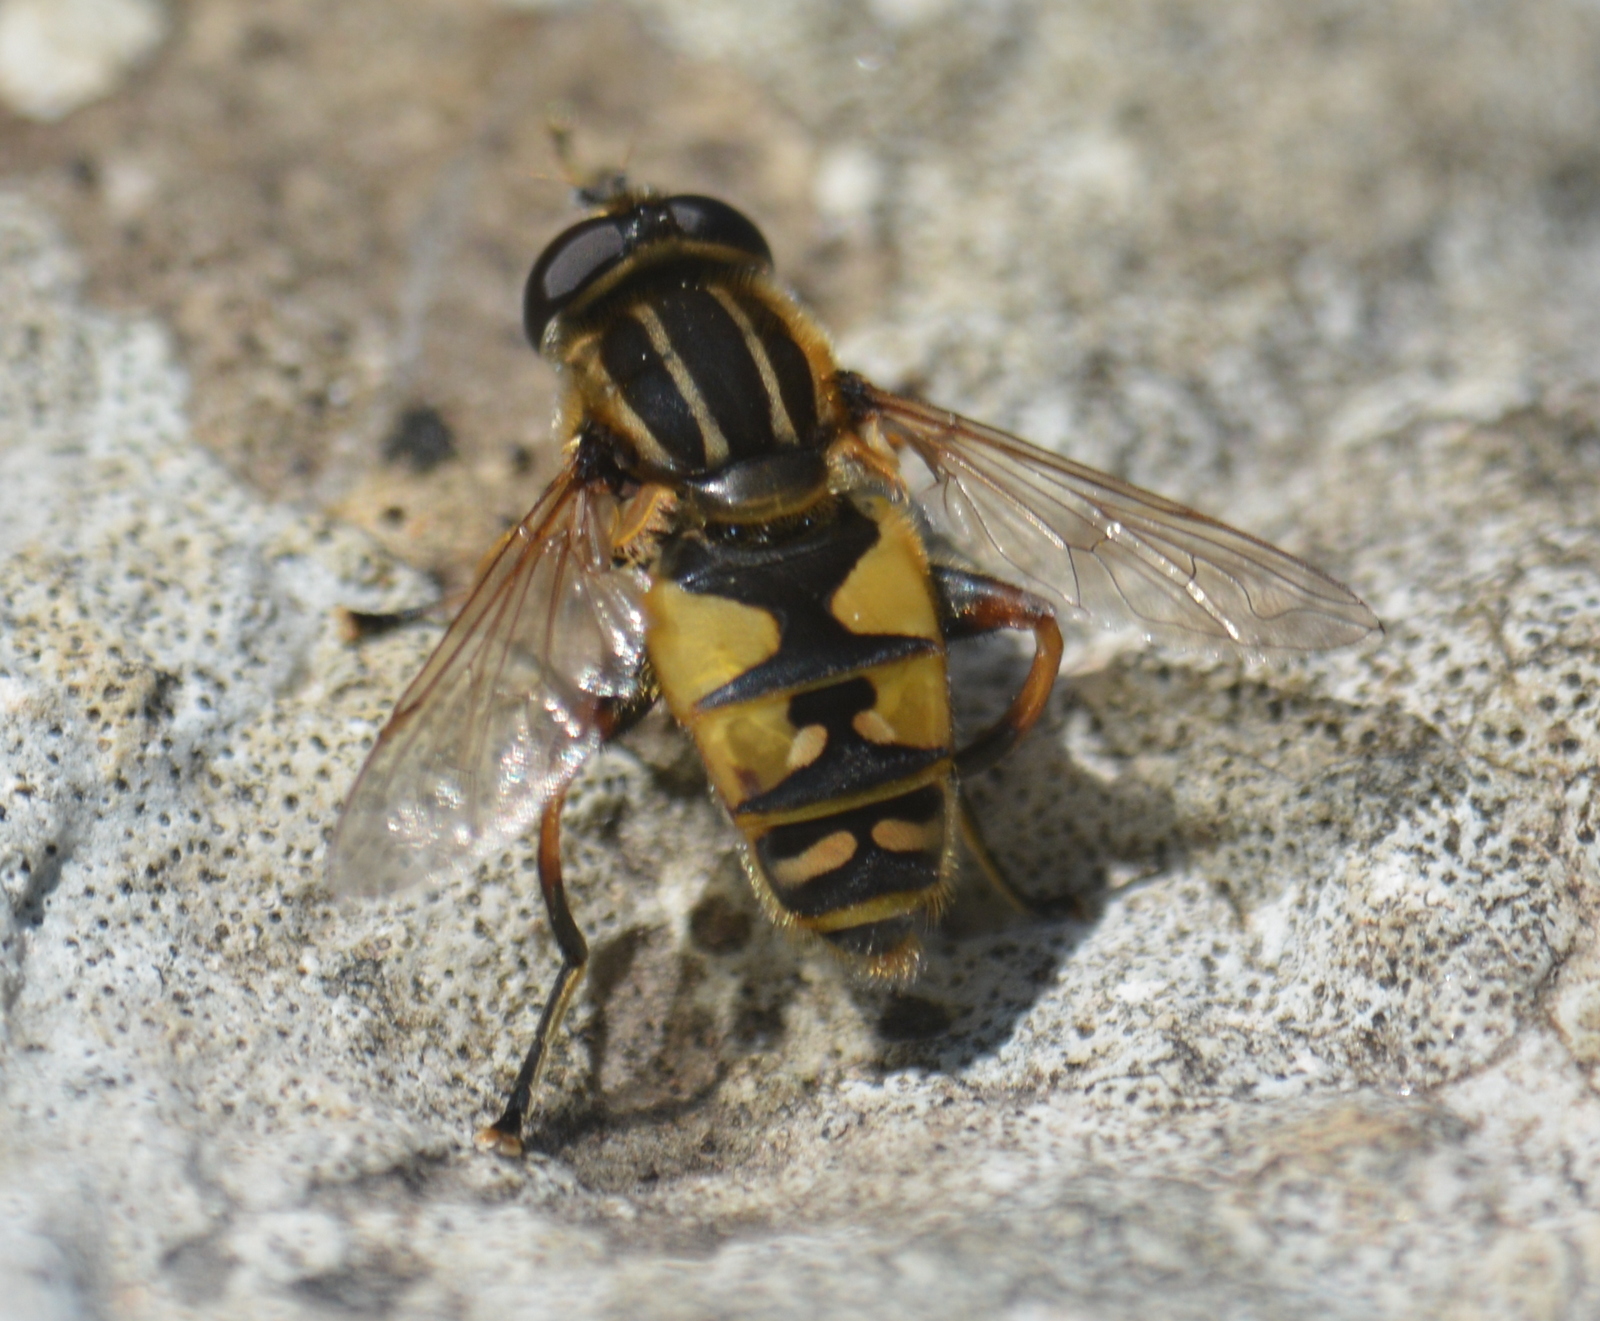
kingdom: Animalia
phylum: Arthropoda
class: Insecta
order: Diptera
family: Syrphidae
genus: Helophilus
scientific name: Helophilus pendulus
